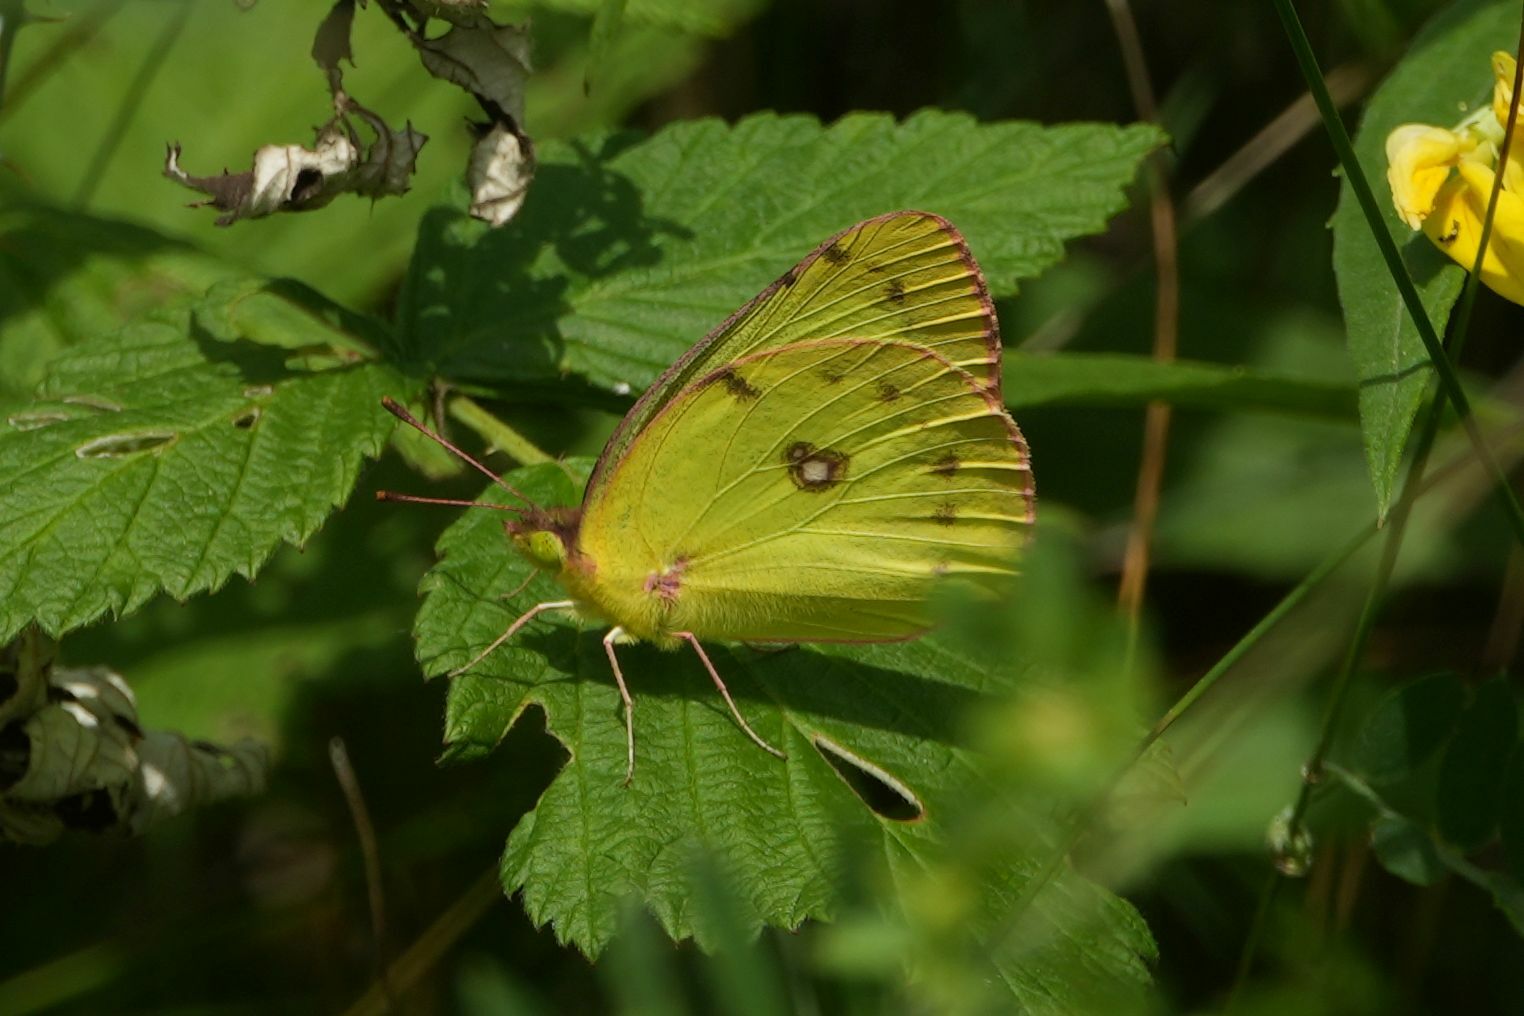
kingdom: Animalia
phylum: Arthropoda
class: Insecta
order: Lepidoptera
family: Pieridae
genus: Colias
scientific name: Colias philodice
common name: Clouded sulphur
